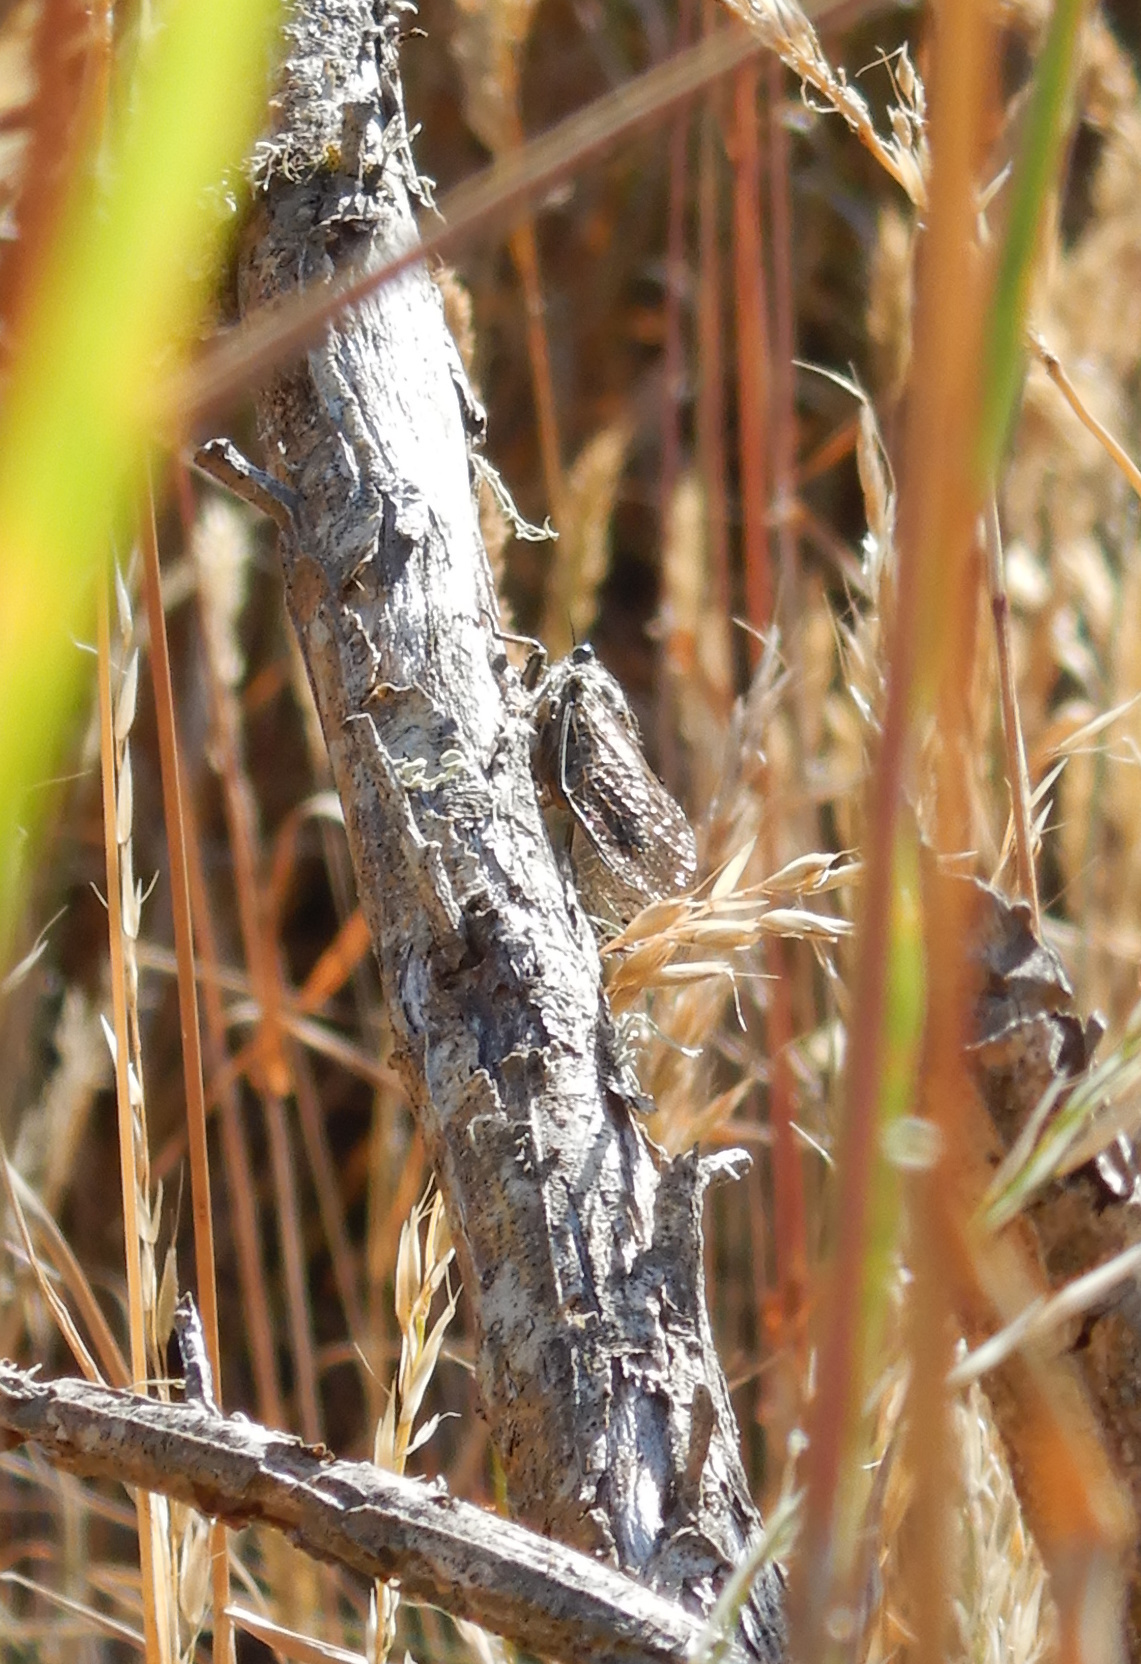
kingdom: Animalia
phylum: Arthropoda
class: Insecta
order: Hemiptera
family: Cicadidae
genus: Amphipsalta
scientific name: Amphipsalta strepitans
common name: Chirping cicada
